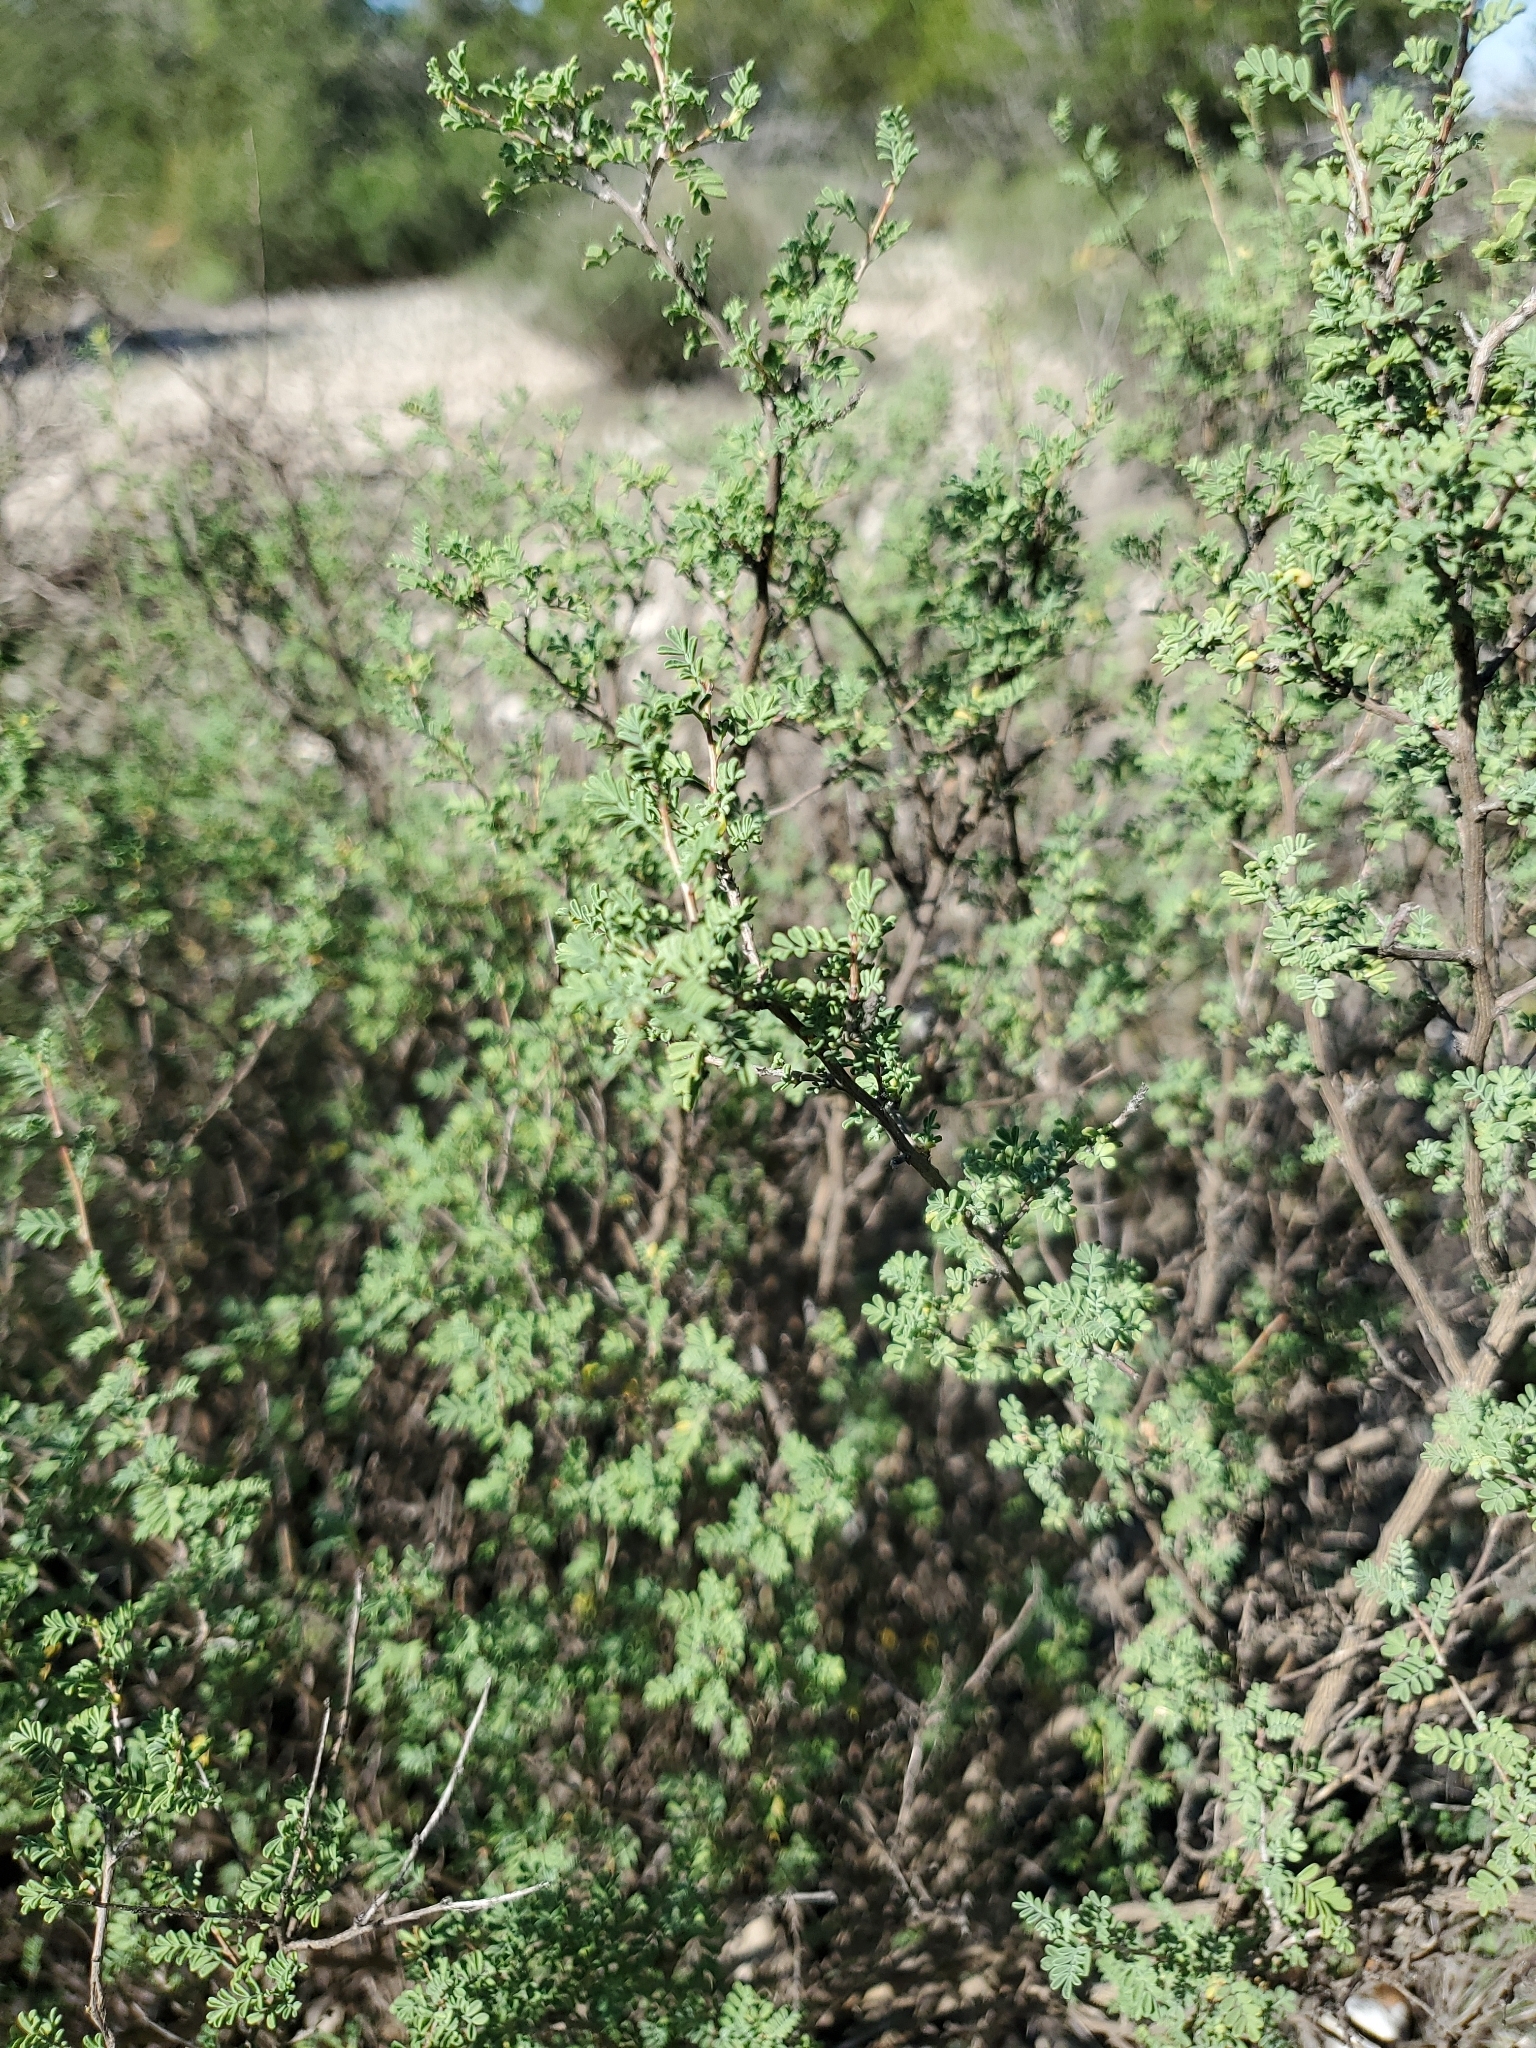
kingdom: Plantae
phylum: Tracheophyta
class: Magnoliopsida
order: Fabales
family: Fabaceae
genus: Dalea
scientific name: Dalea formosa
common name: Feather-plume dalea
